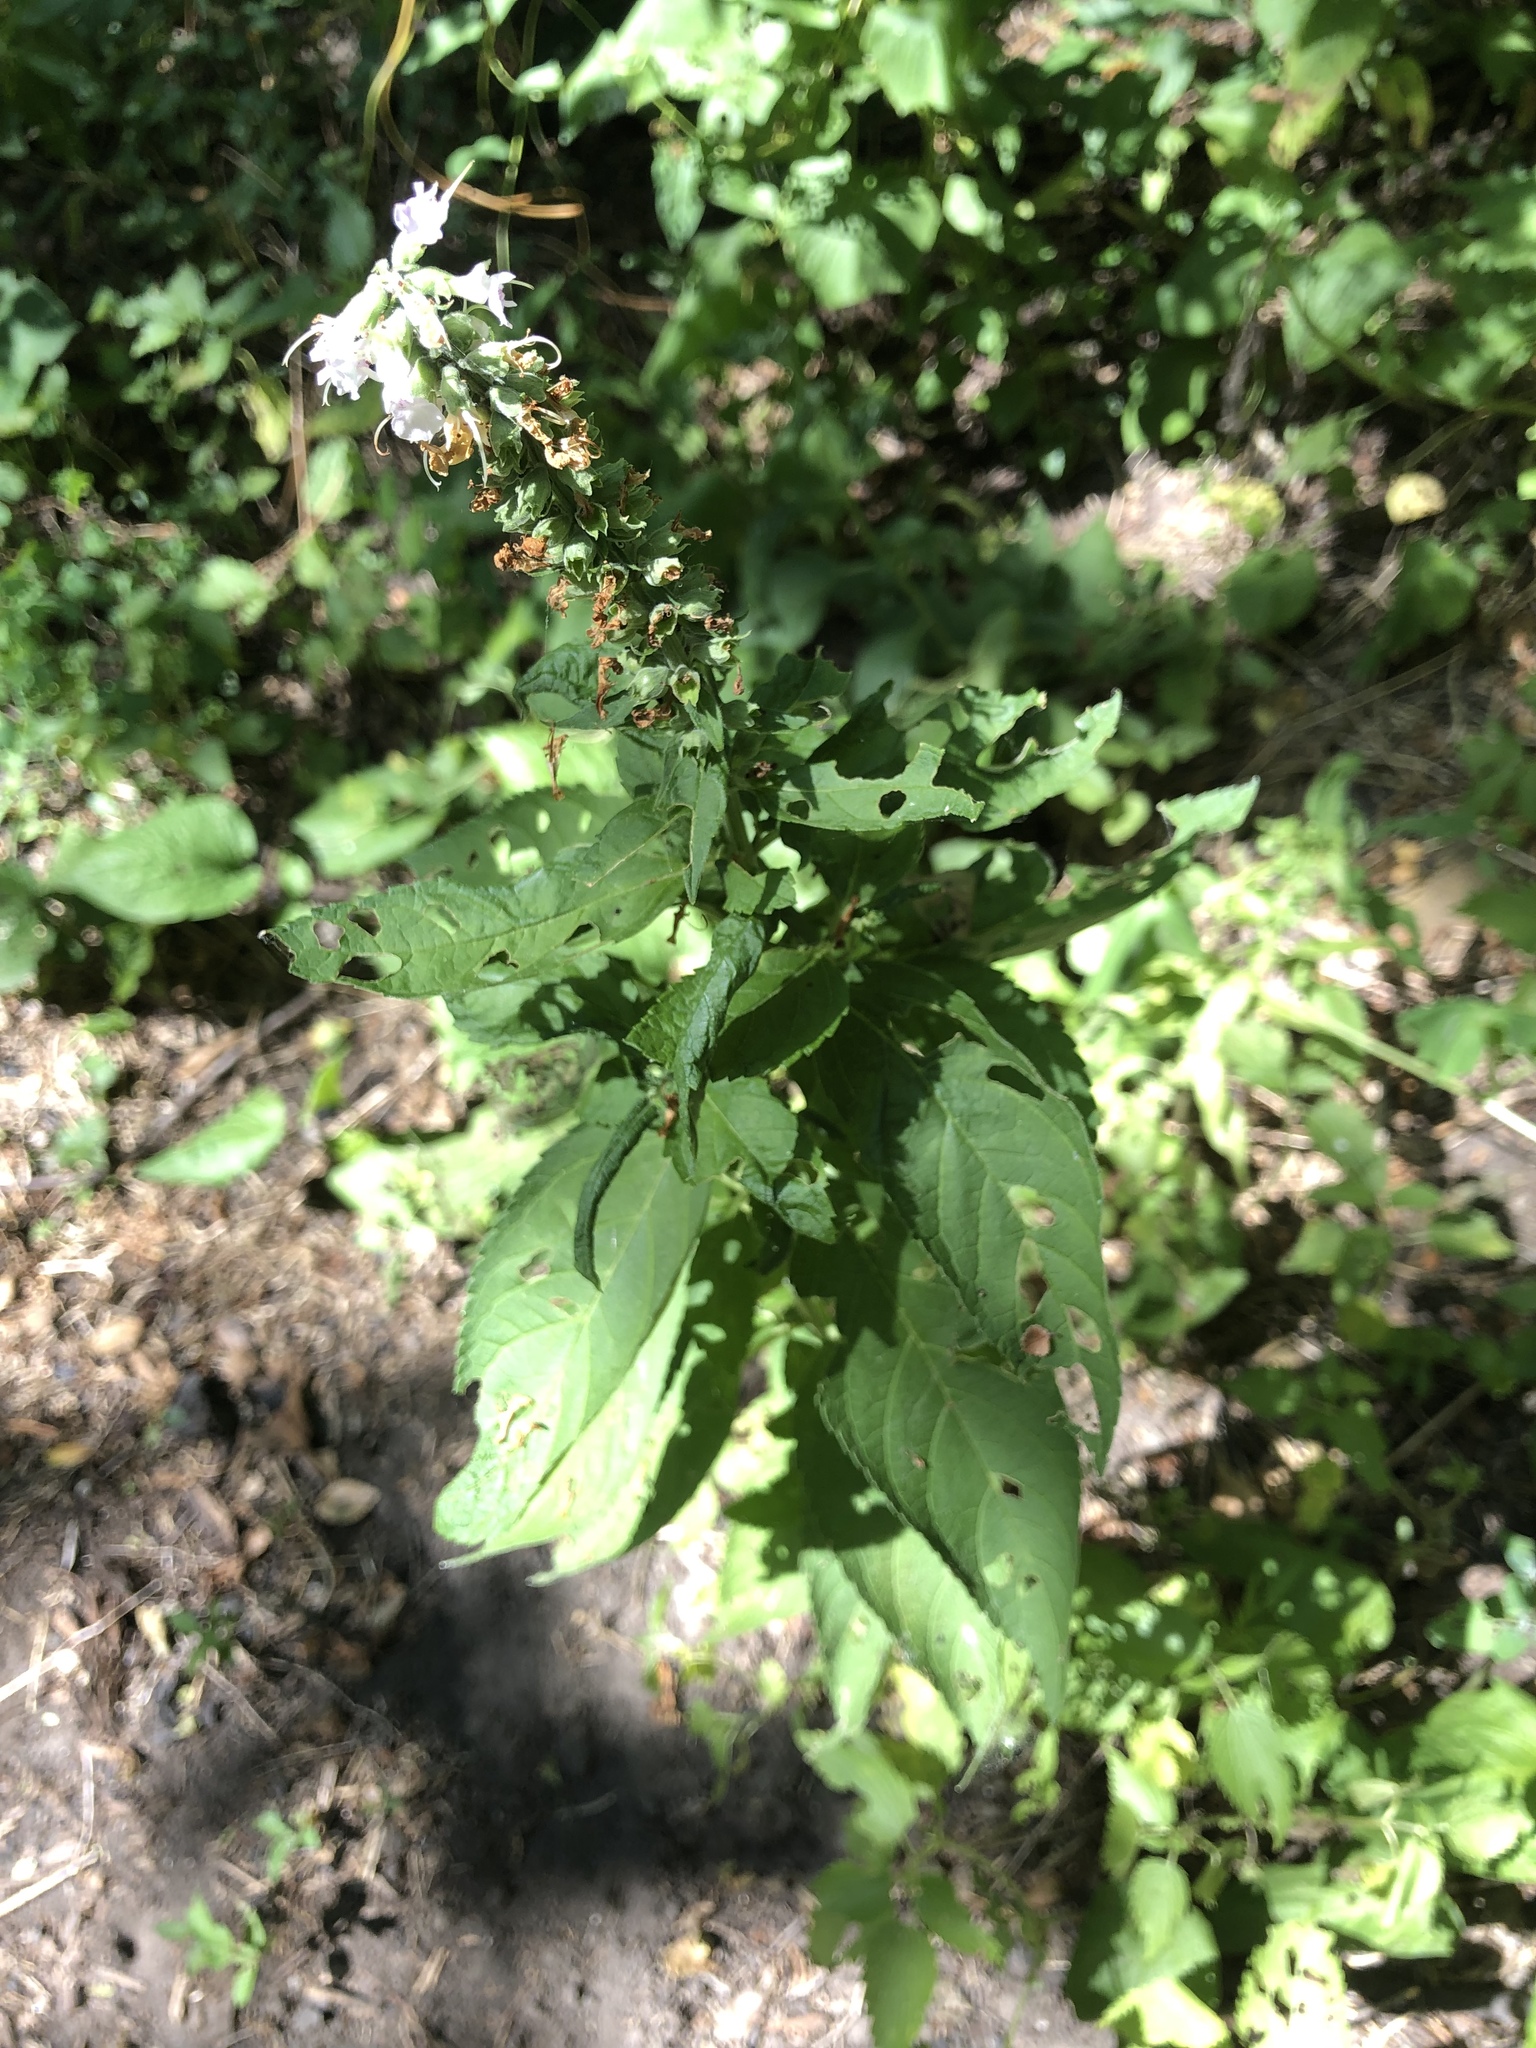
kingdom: Plantae
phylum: Tracheophyta
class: Magnoliopsida
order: Lamiales
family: Lamiaceae
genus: Teucrium
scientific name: Teucrium canadense
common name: American germander
